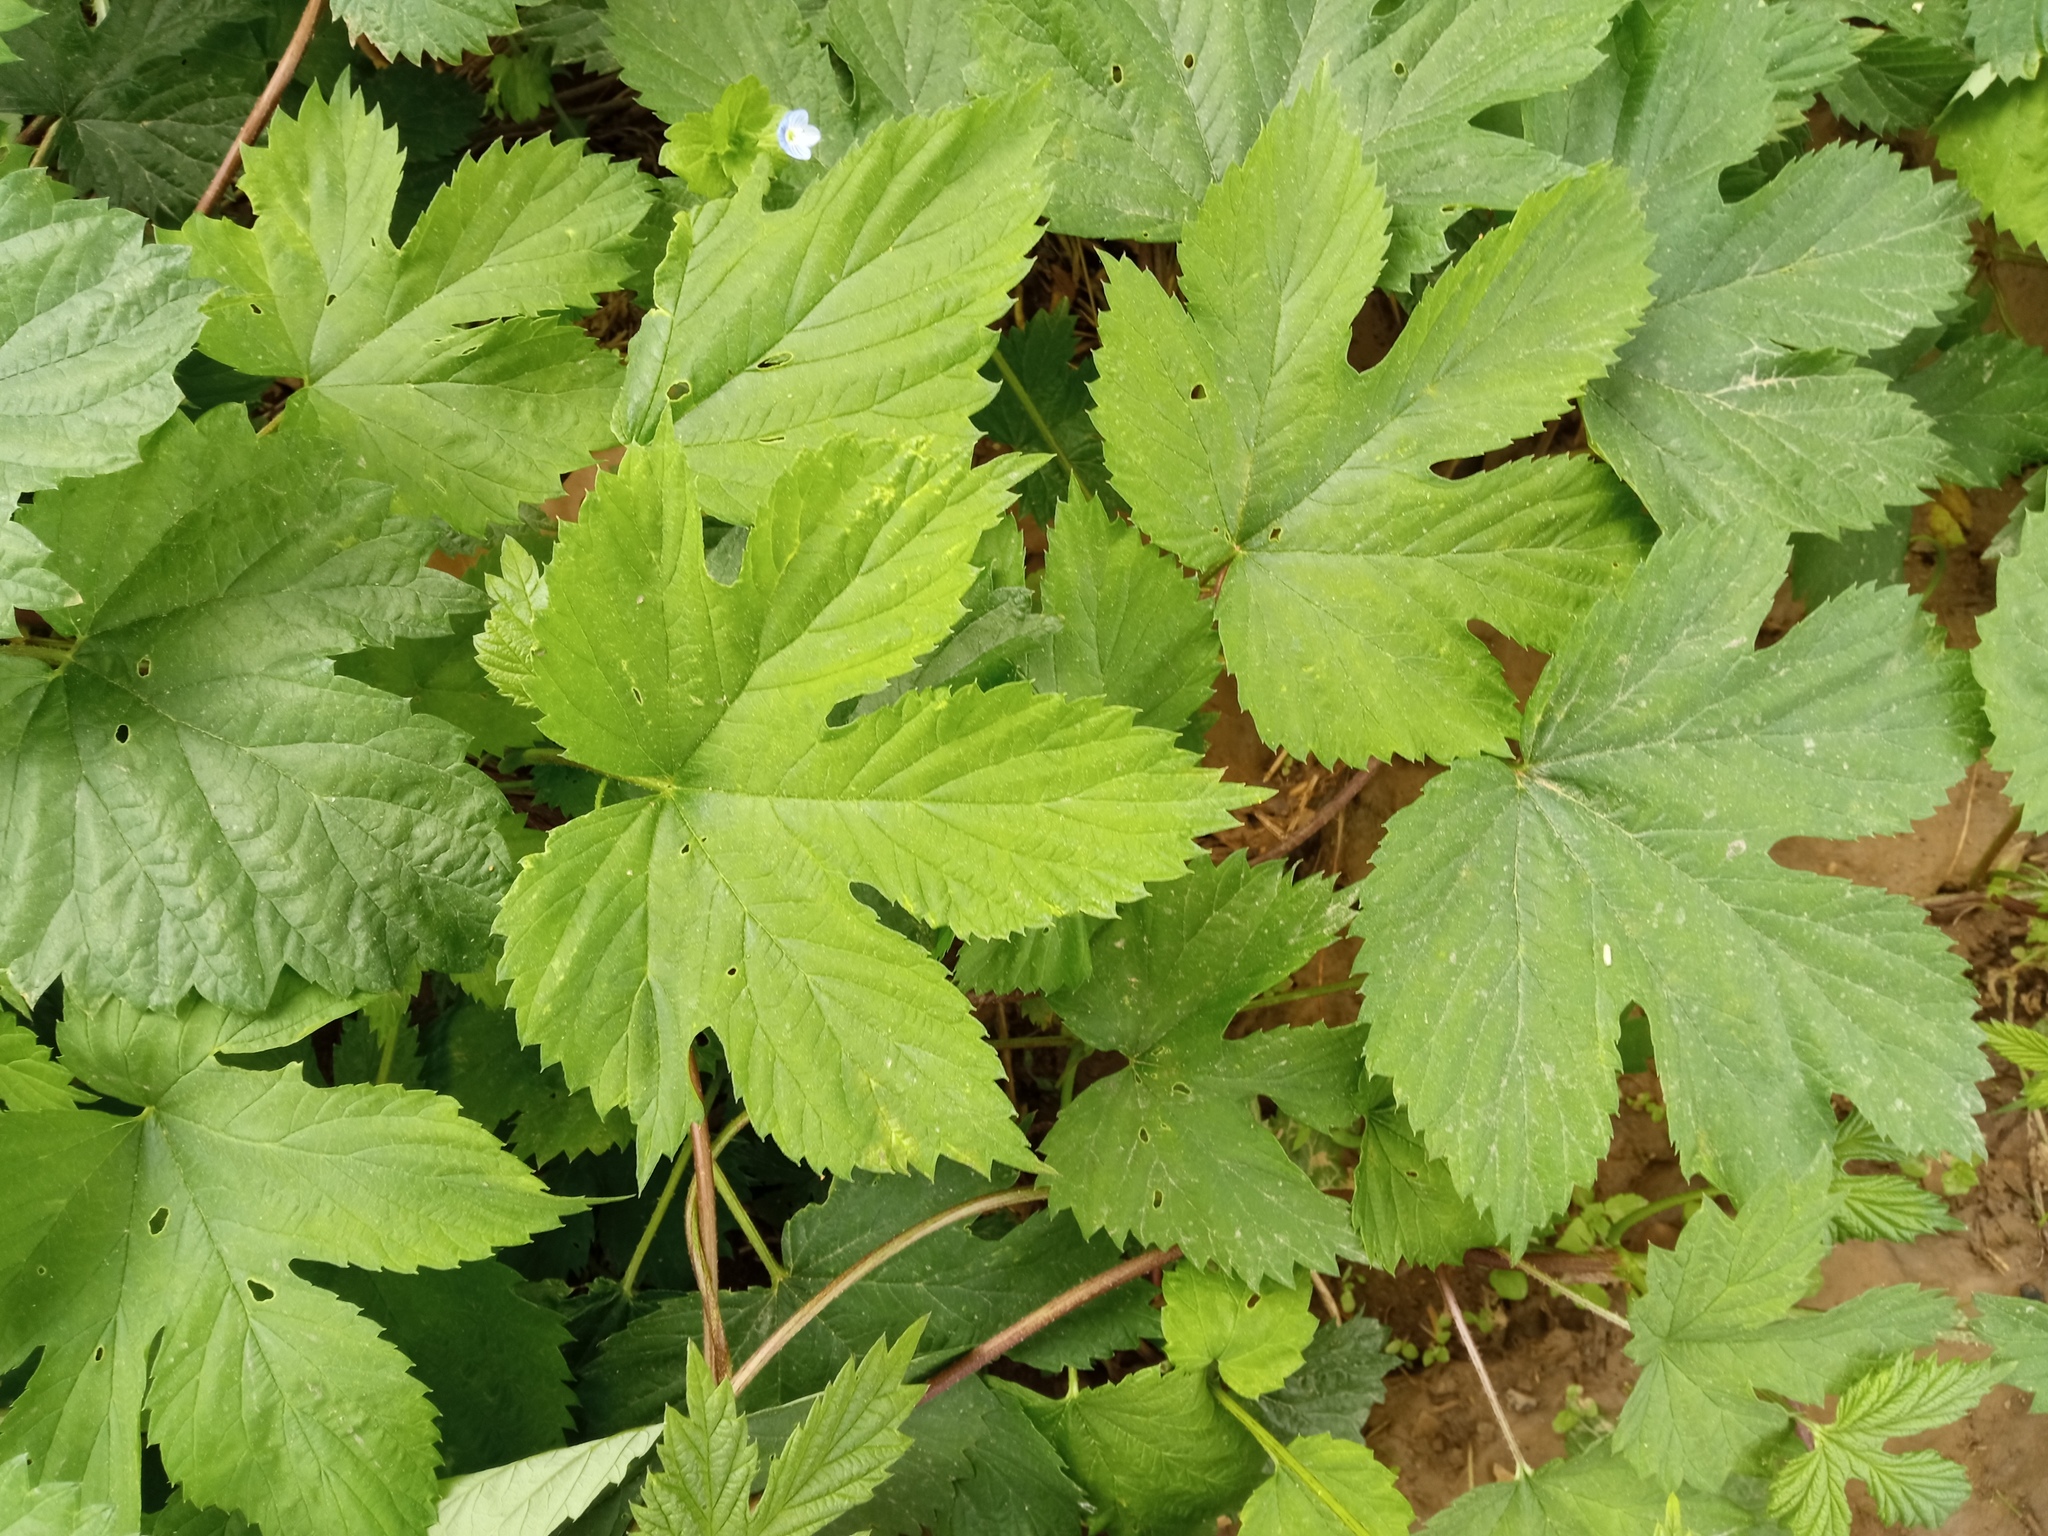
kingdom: Plantae
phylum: Tracheophyta
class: Magnoliopsida
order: Rosales
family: Cannabaceae
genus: Humulus
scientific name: Humulus lupulus
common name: Hop
